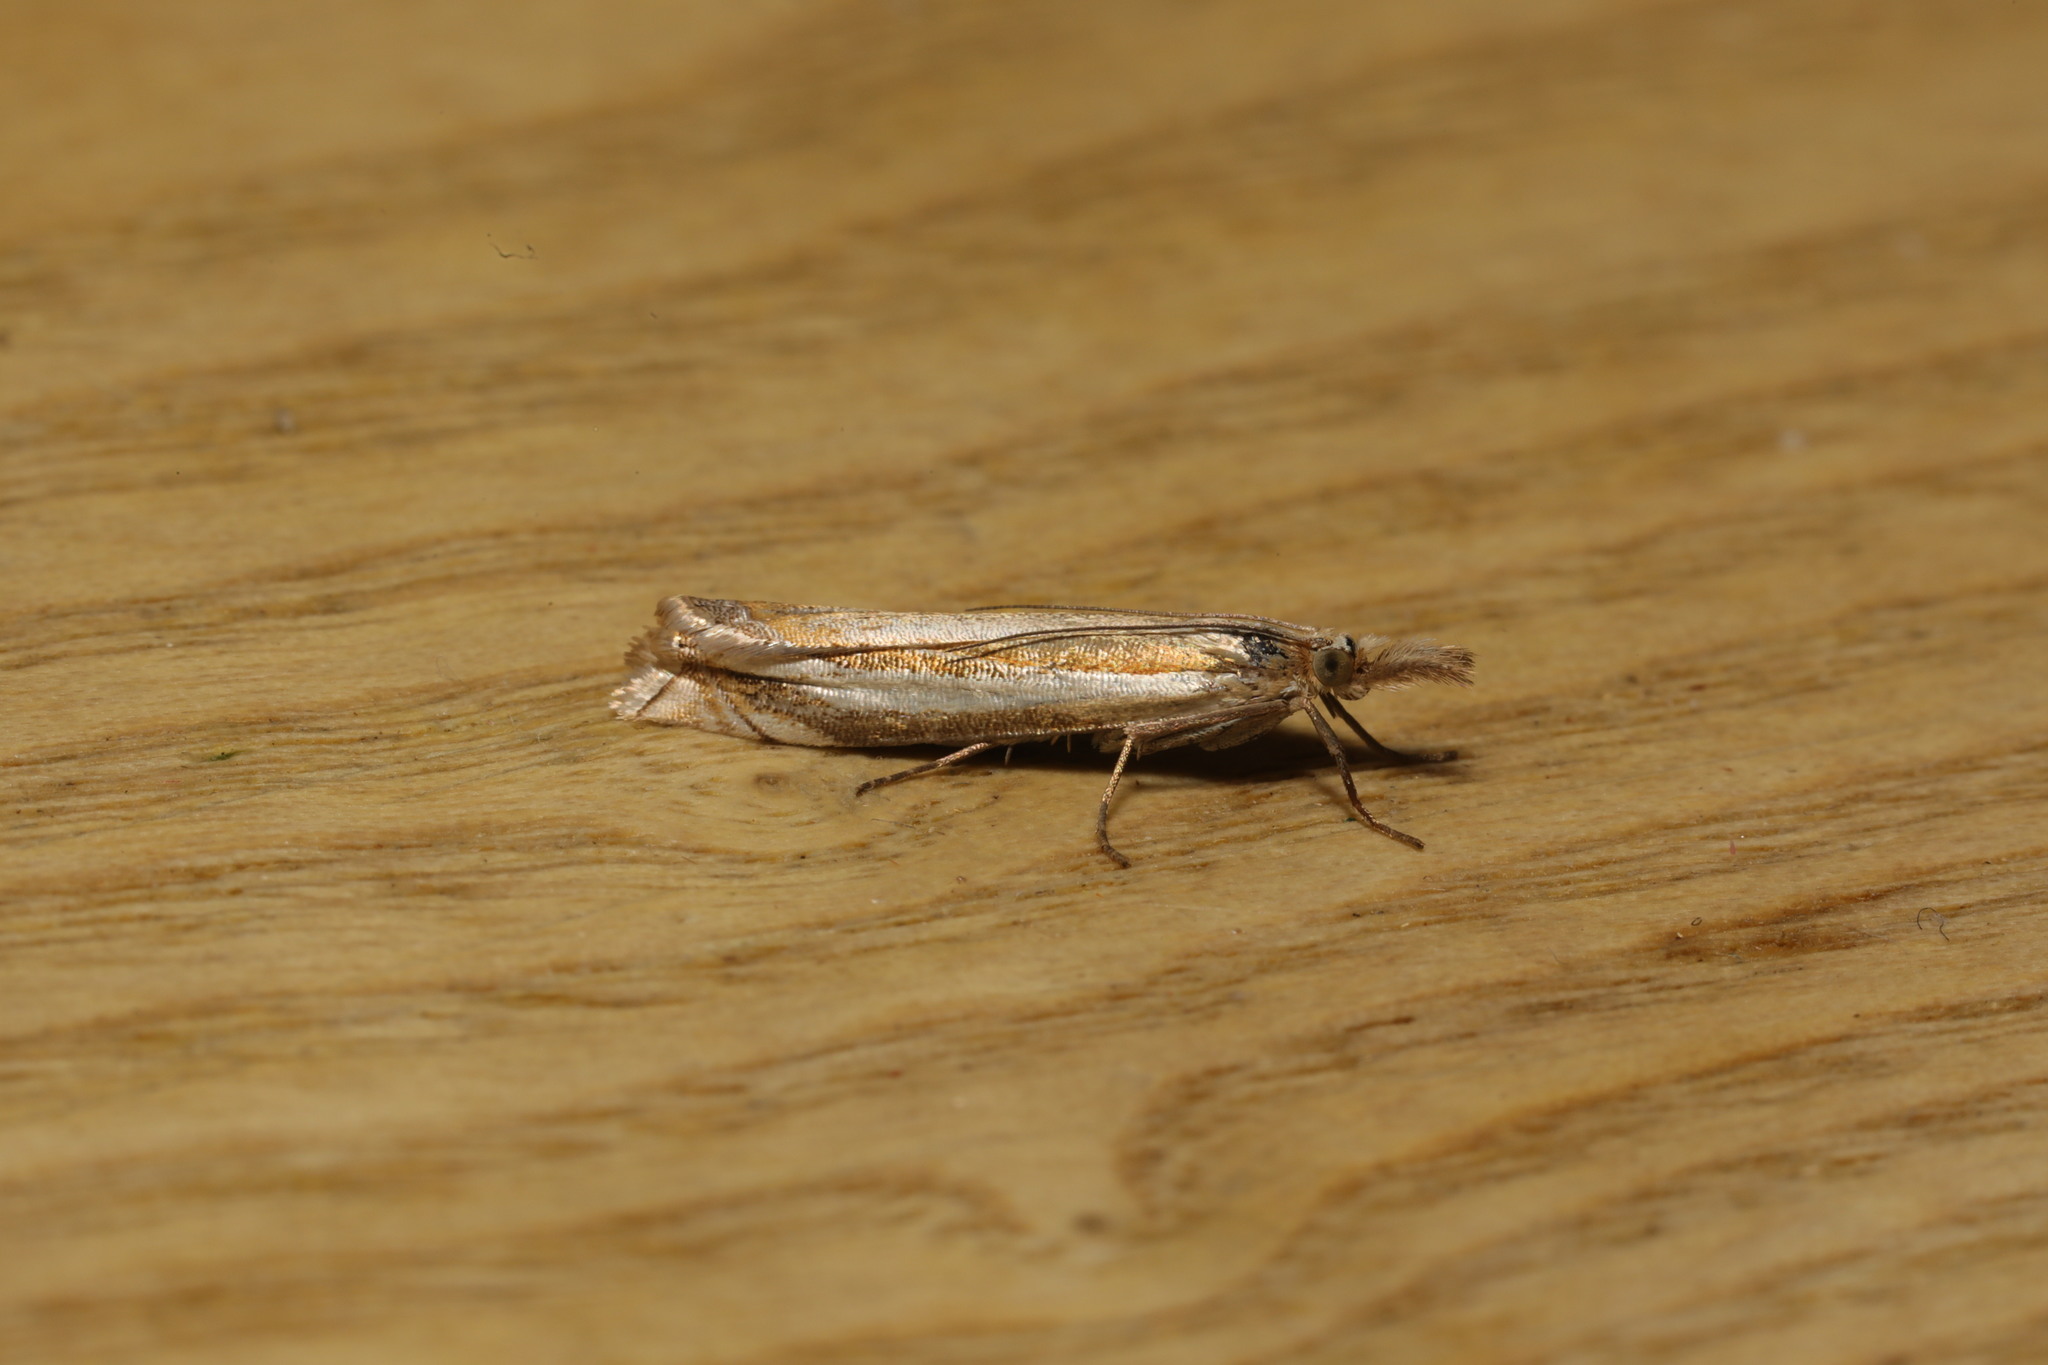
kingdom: Animalia
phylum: Arthropoda
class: Insecta
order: Lepidoptera
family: Crambidae
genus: Crambus
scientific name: Crambus pascuella
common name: Inlaid grass-veneer
